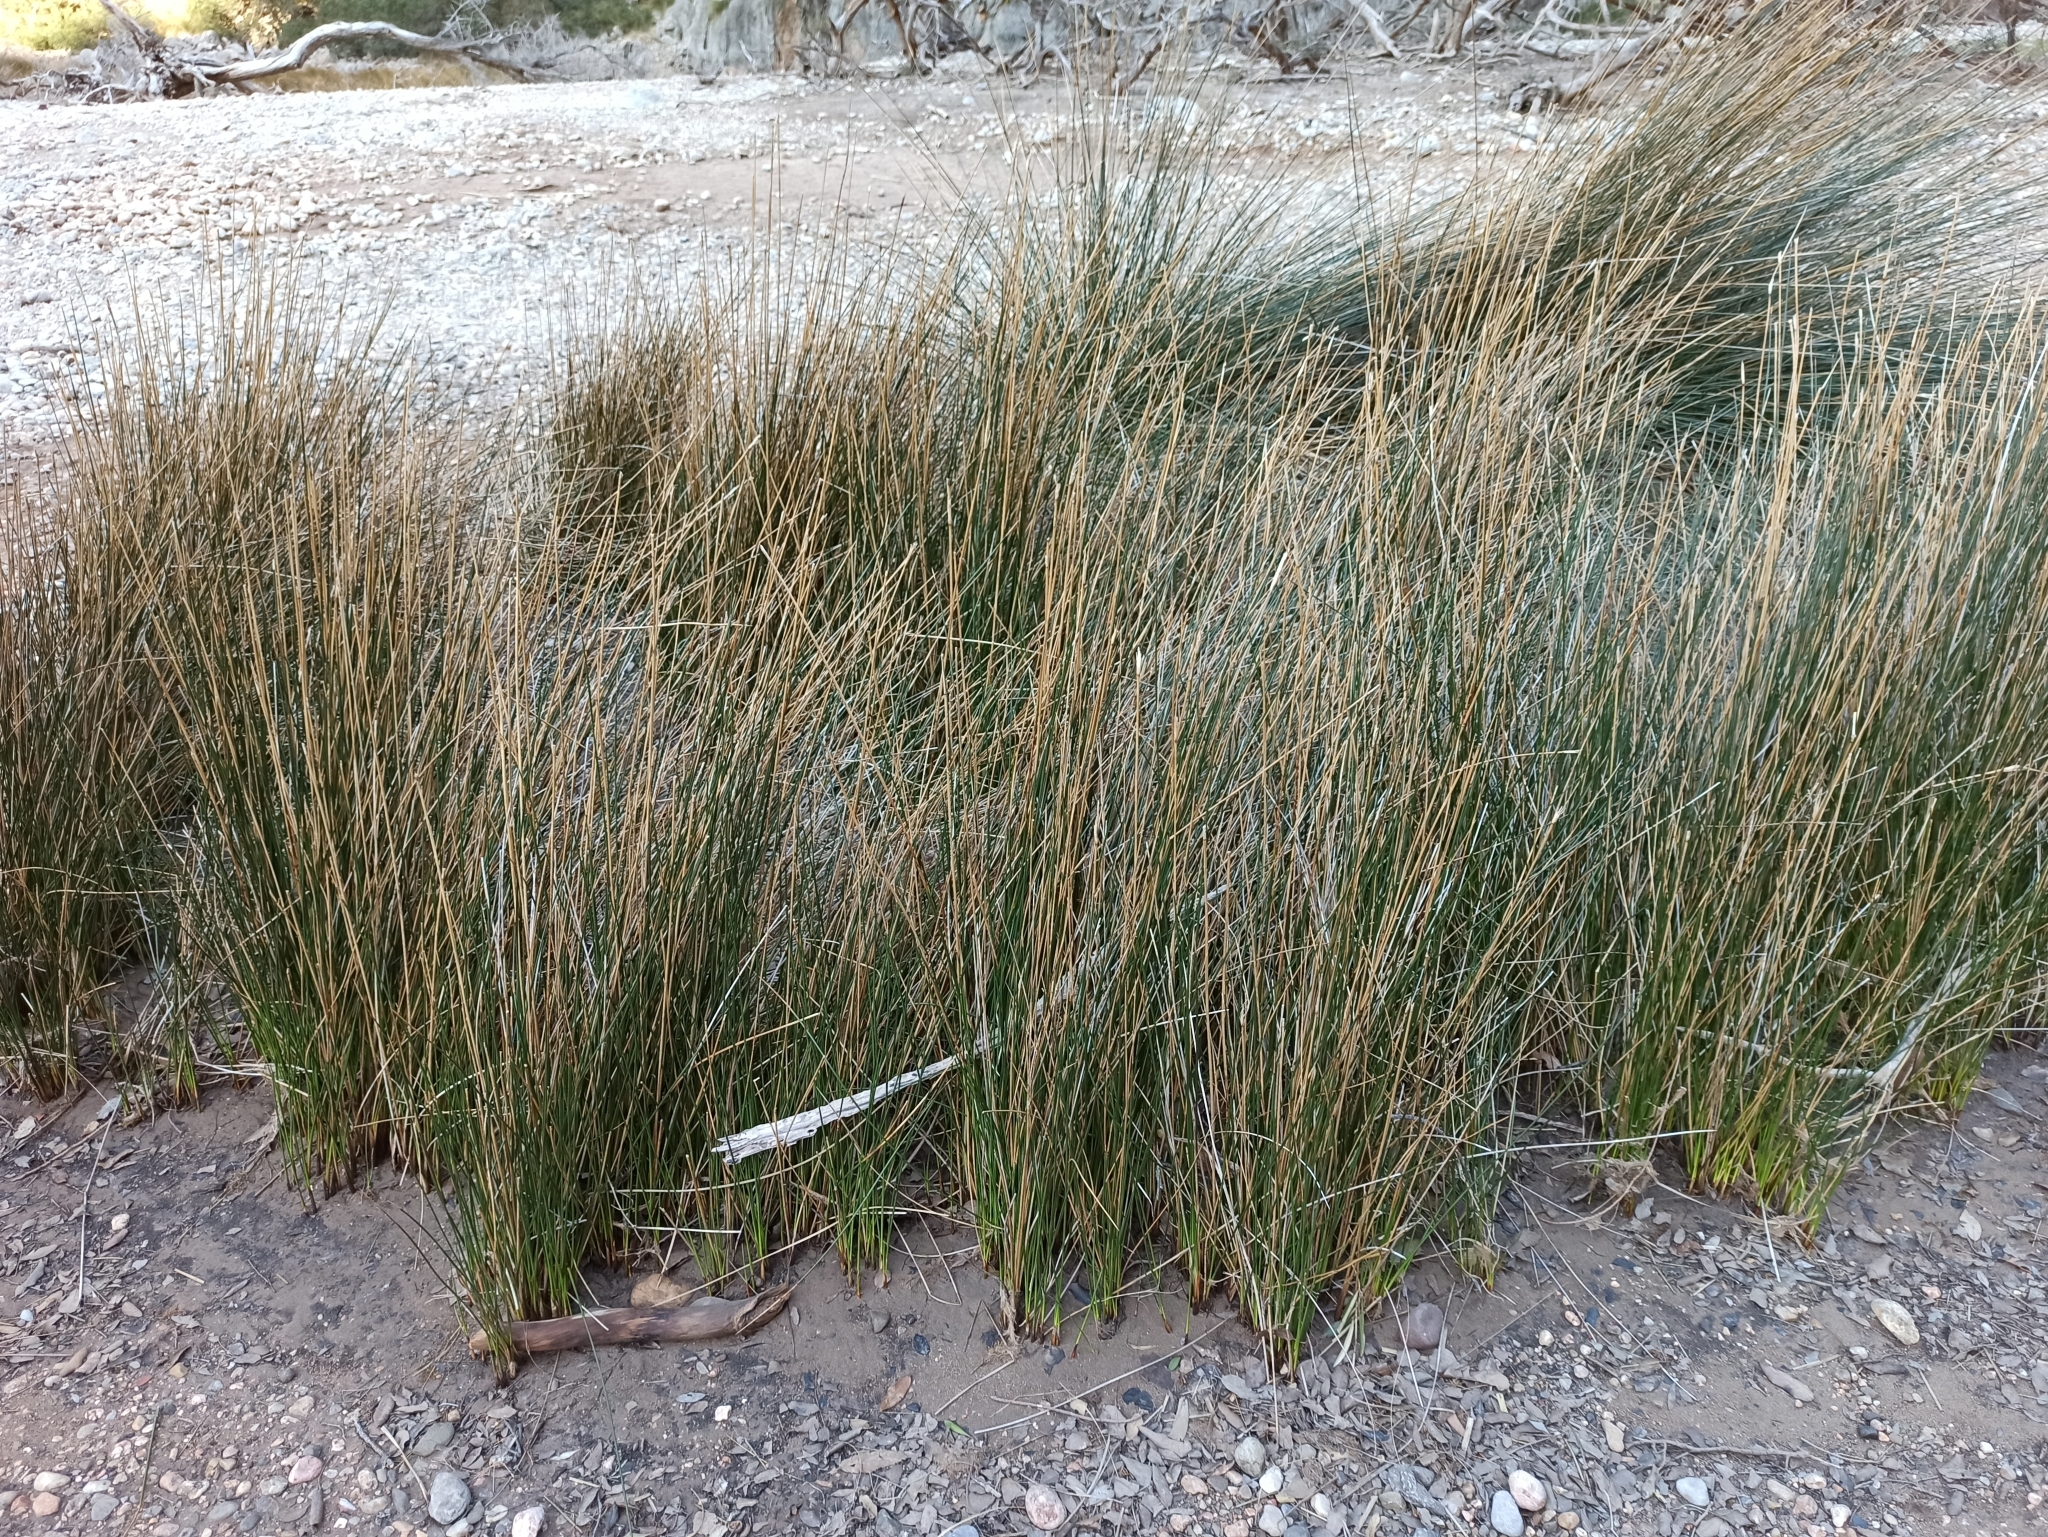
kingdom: Plantae
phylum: Tracheophyta
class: Liliopsida
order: Poales
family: Juncaceae
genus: Juncus
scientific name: Juncus maritimus
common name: Sea rush
